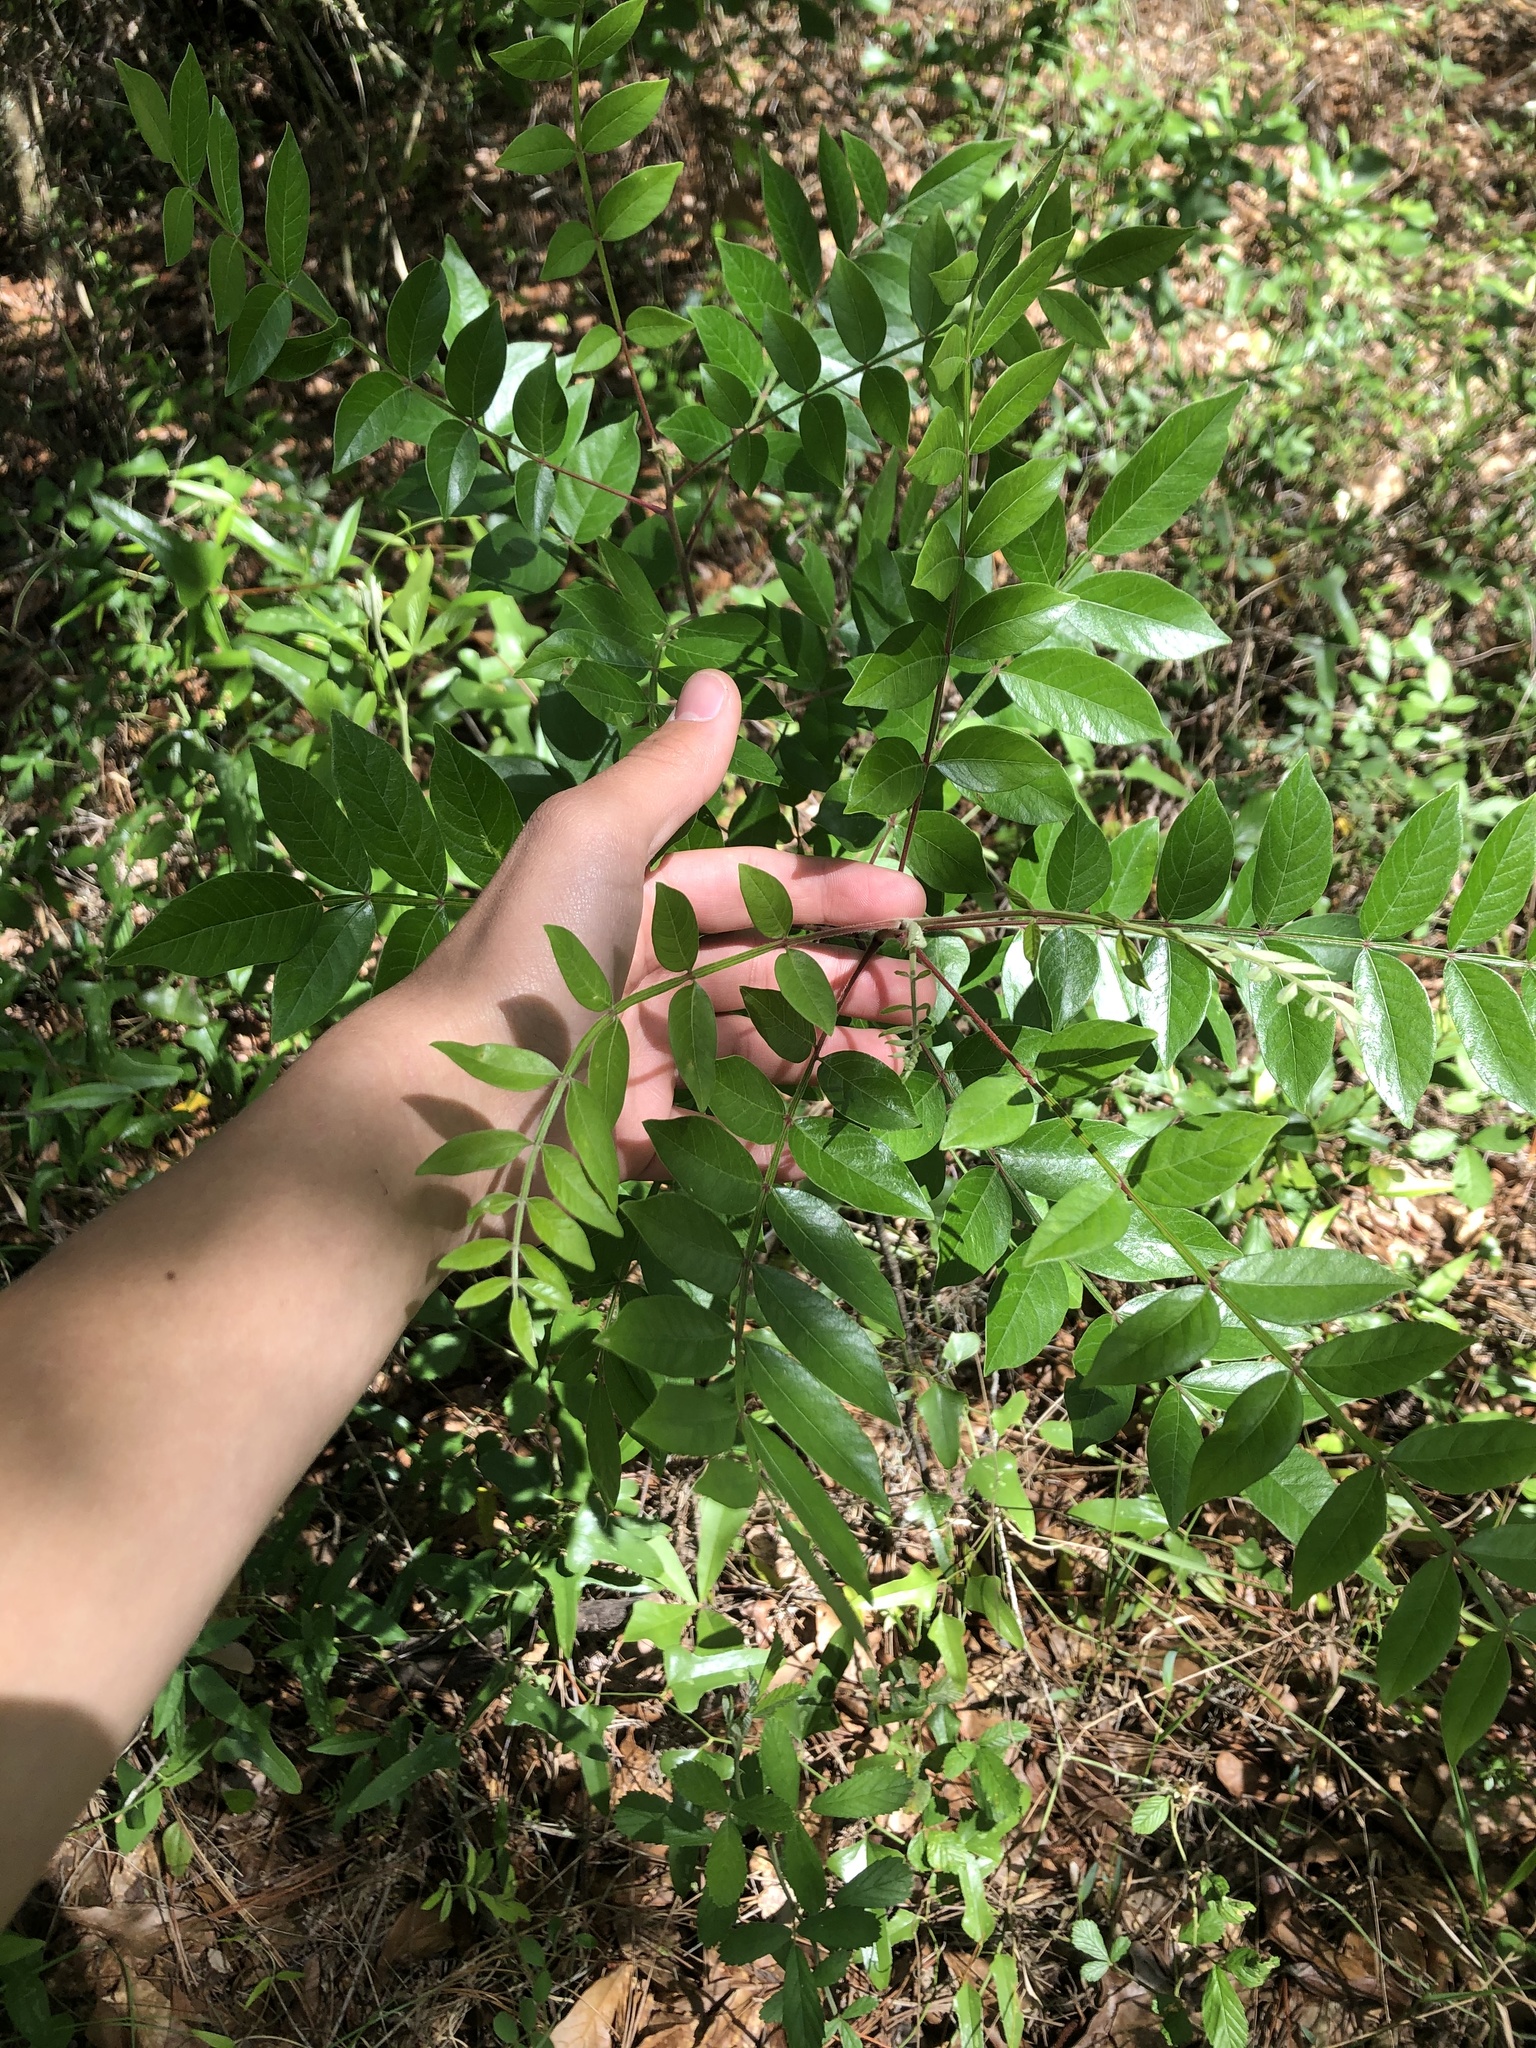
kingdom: Plantae
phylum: Tracheophyta
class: Magnoliopsida
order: Sapindales
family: Anacardiaceae
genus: Rhus
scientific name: Rhus copallina
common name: Shining sumac
